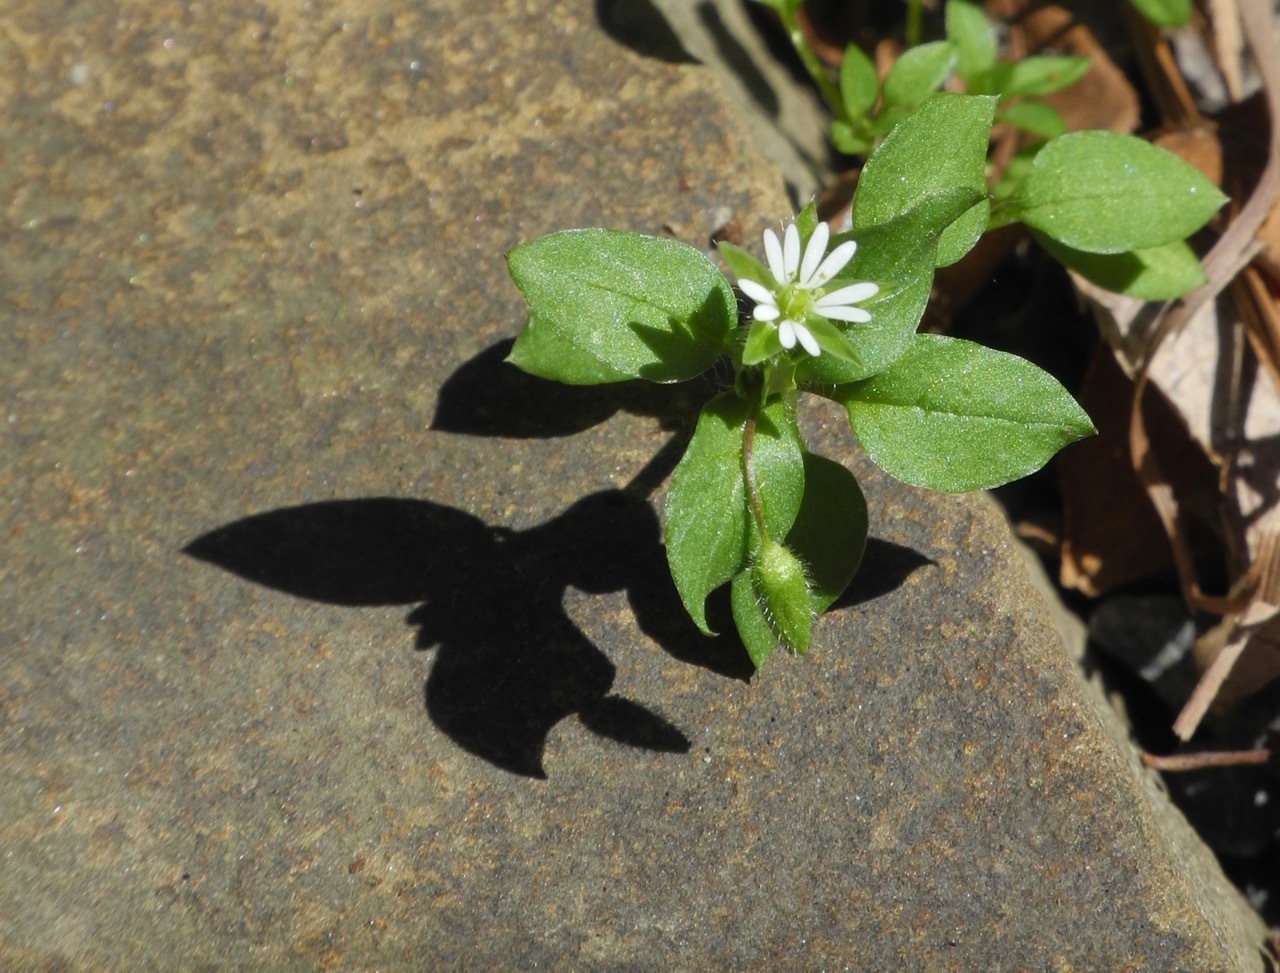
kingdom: Plantae
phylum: Tracheophyta
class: Magnoliopsida
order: Caryophyllales
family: Caryophyllaceae
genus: Stellaria
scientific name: Stellaria media
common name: Common chickweed
